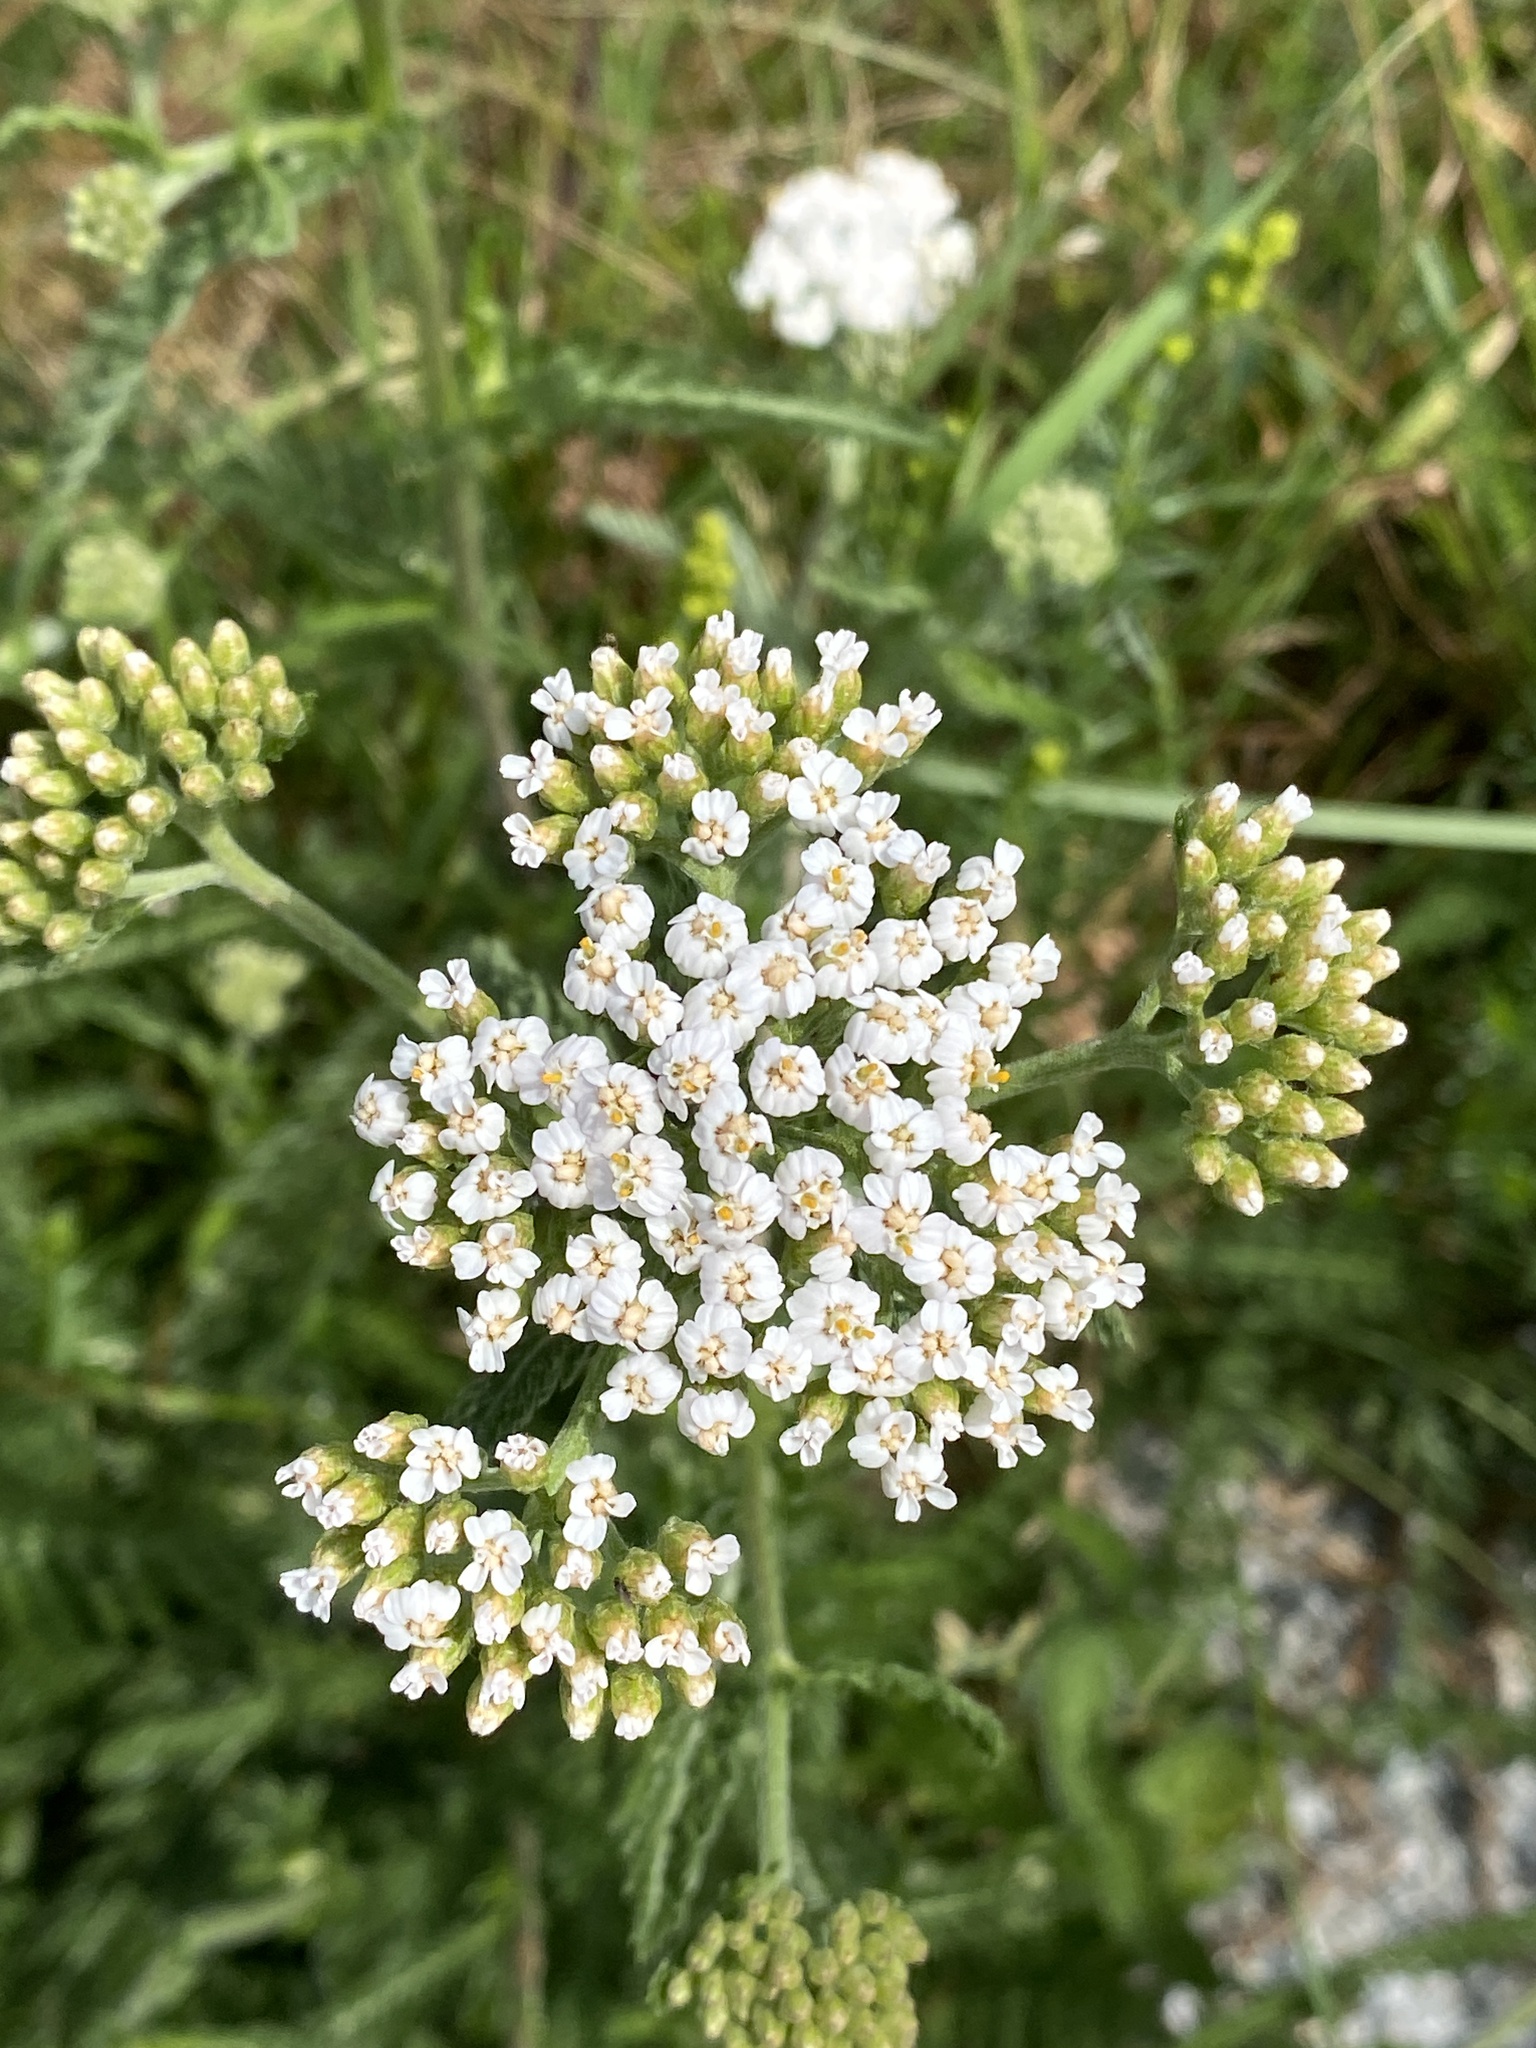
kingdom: Plantae
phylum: Tracheophyta
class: Magnoliopsida
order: Asterales
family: Asteraceae
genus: Achillea
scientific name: Achillea millefolium
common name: Yarrow
